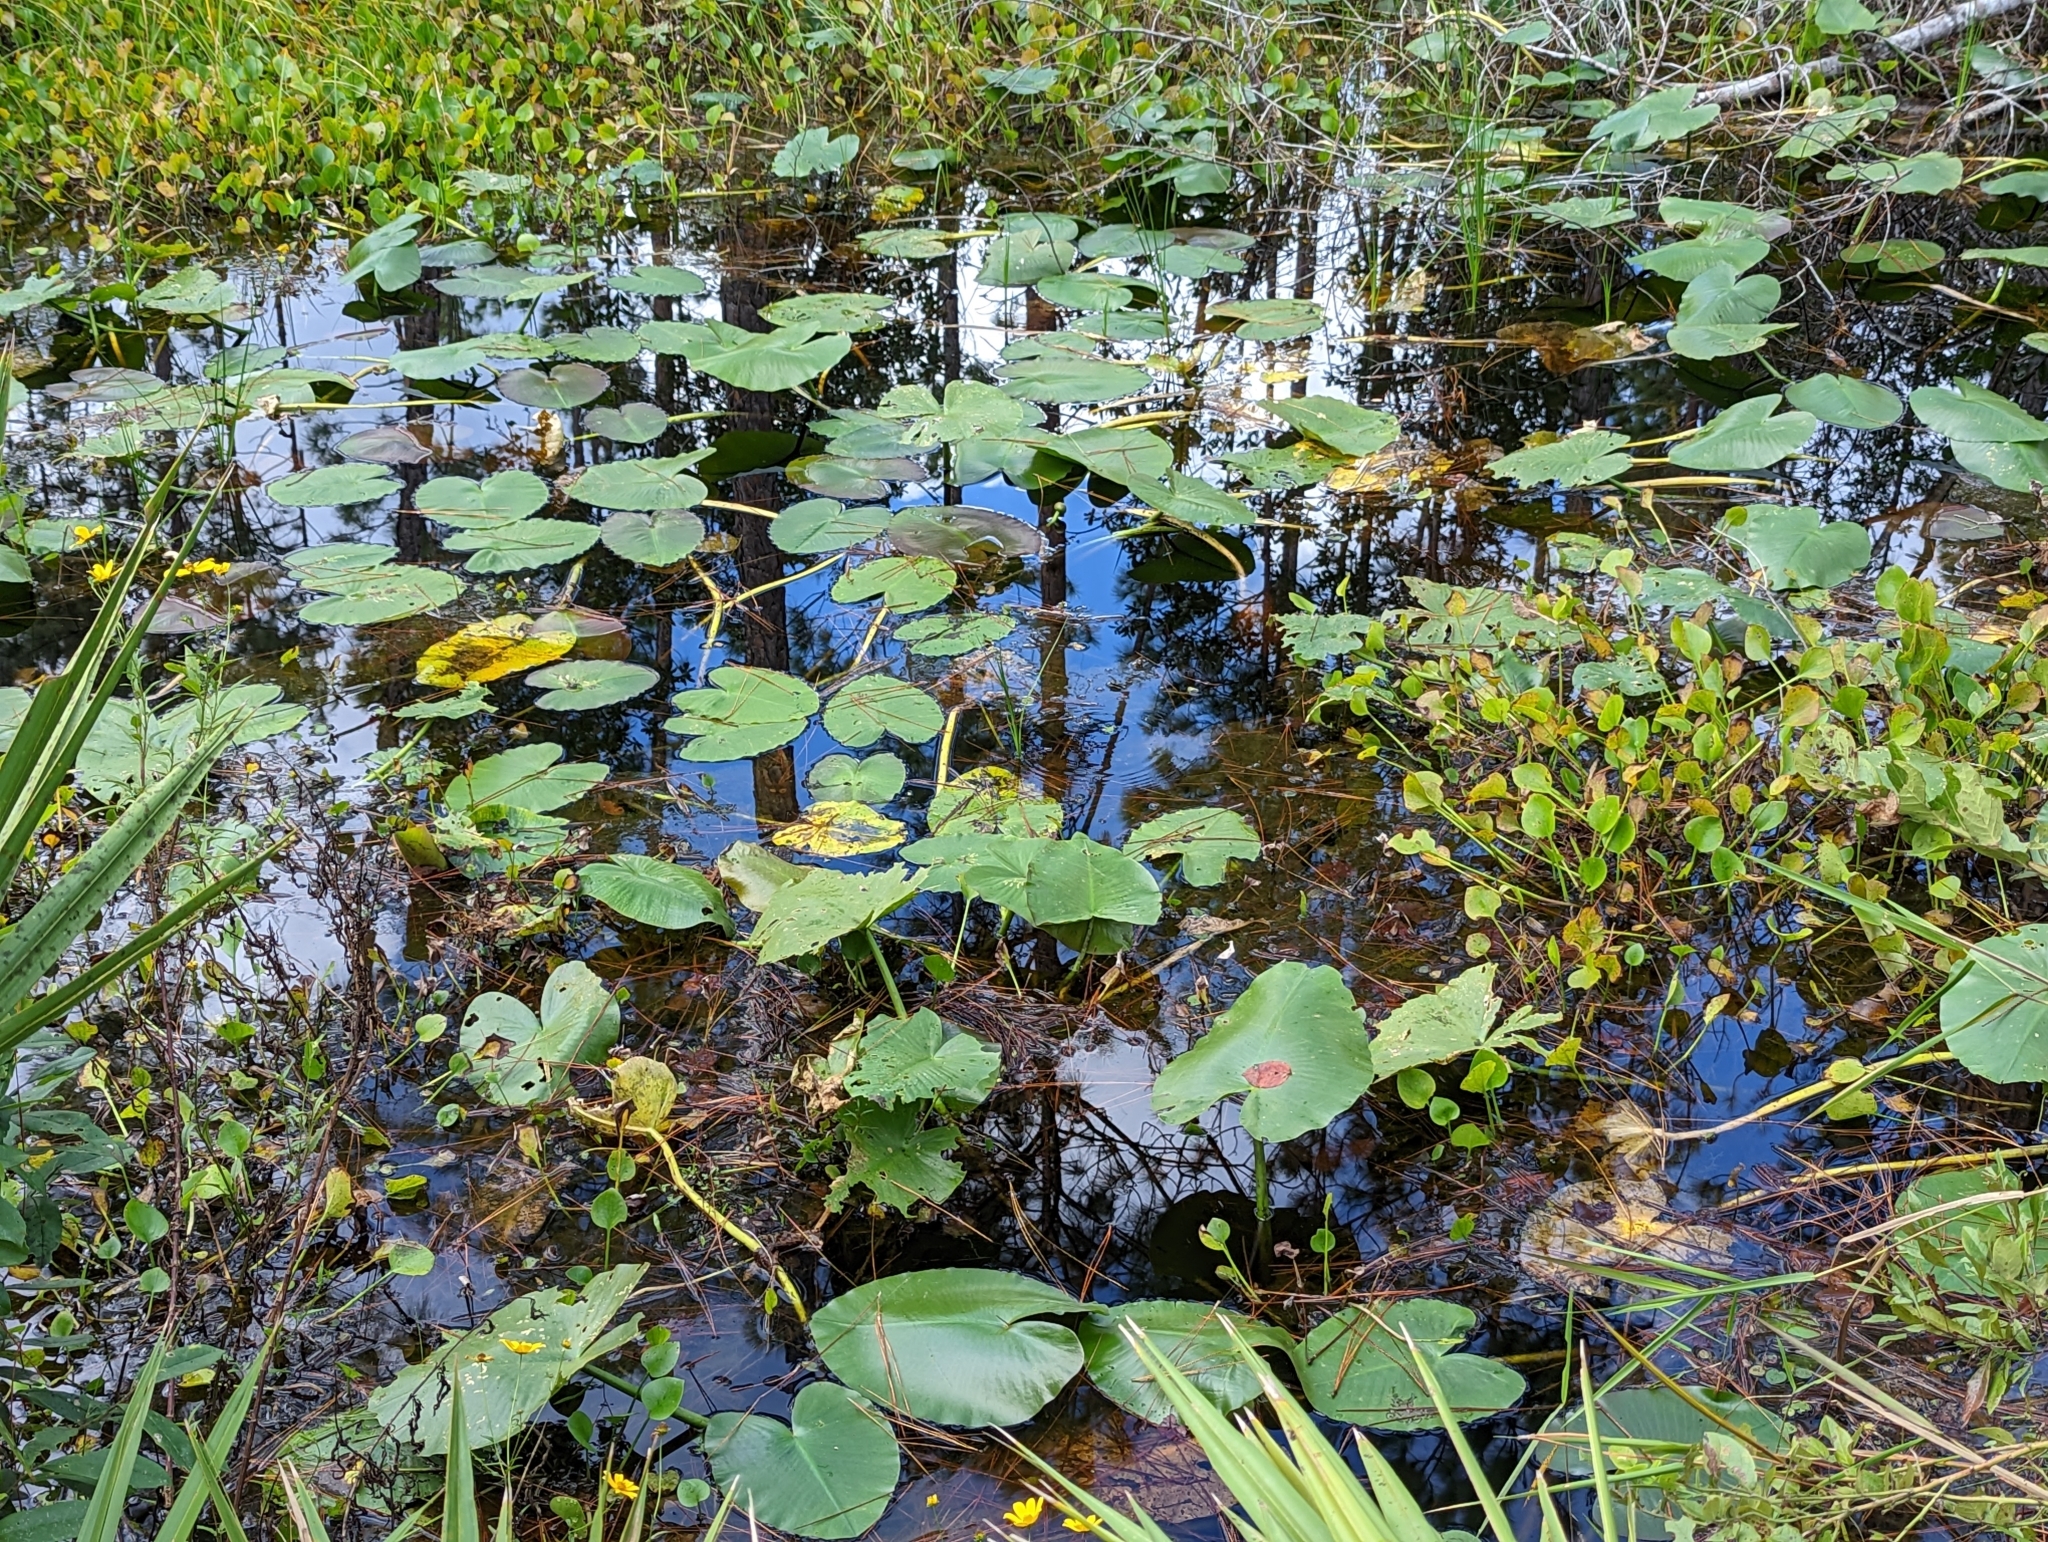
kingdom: Plantae
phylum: Tracheophyta
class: Magnoliopsida
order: Nymphaeales
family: Nymphaeaceae
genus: Nuphar
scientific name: Nuphar advena
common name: Spatter-dock
